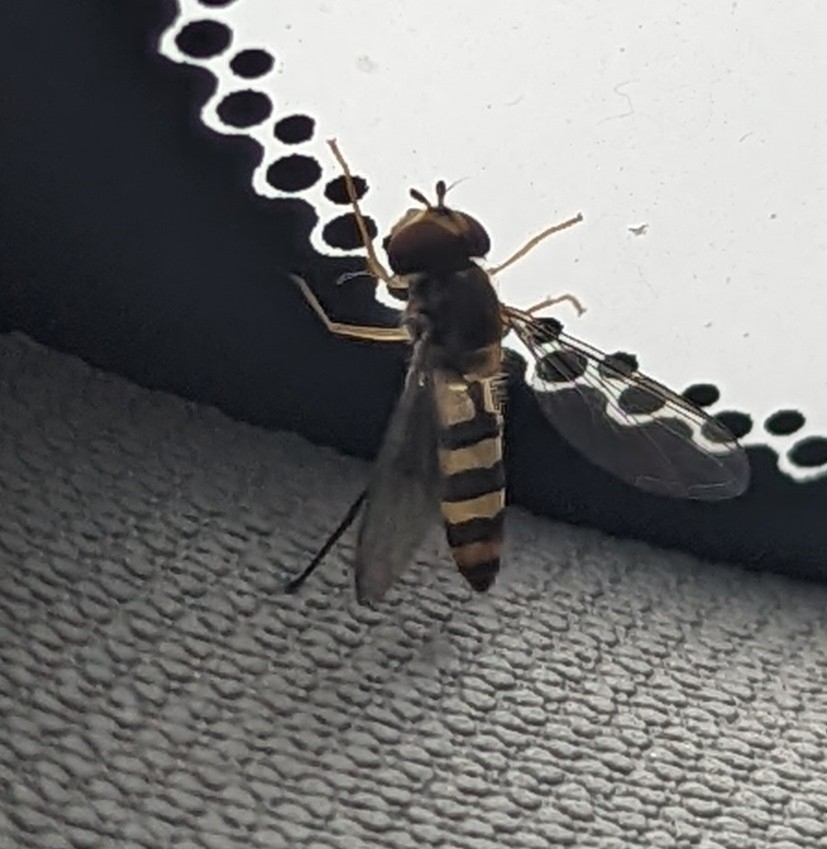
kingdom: Animalia
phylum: Arthropoda
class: Insecta
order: Diptera
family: Syrphidae
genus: Meliscaeva
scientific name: Meliscaeva cinctella
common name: American thintail fly
